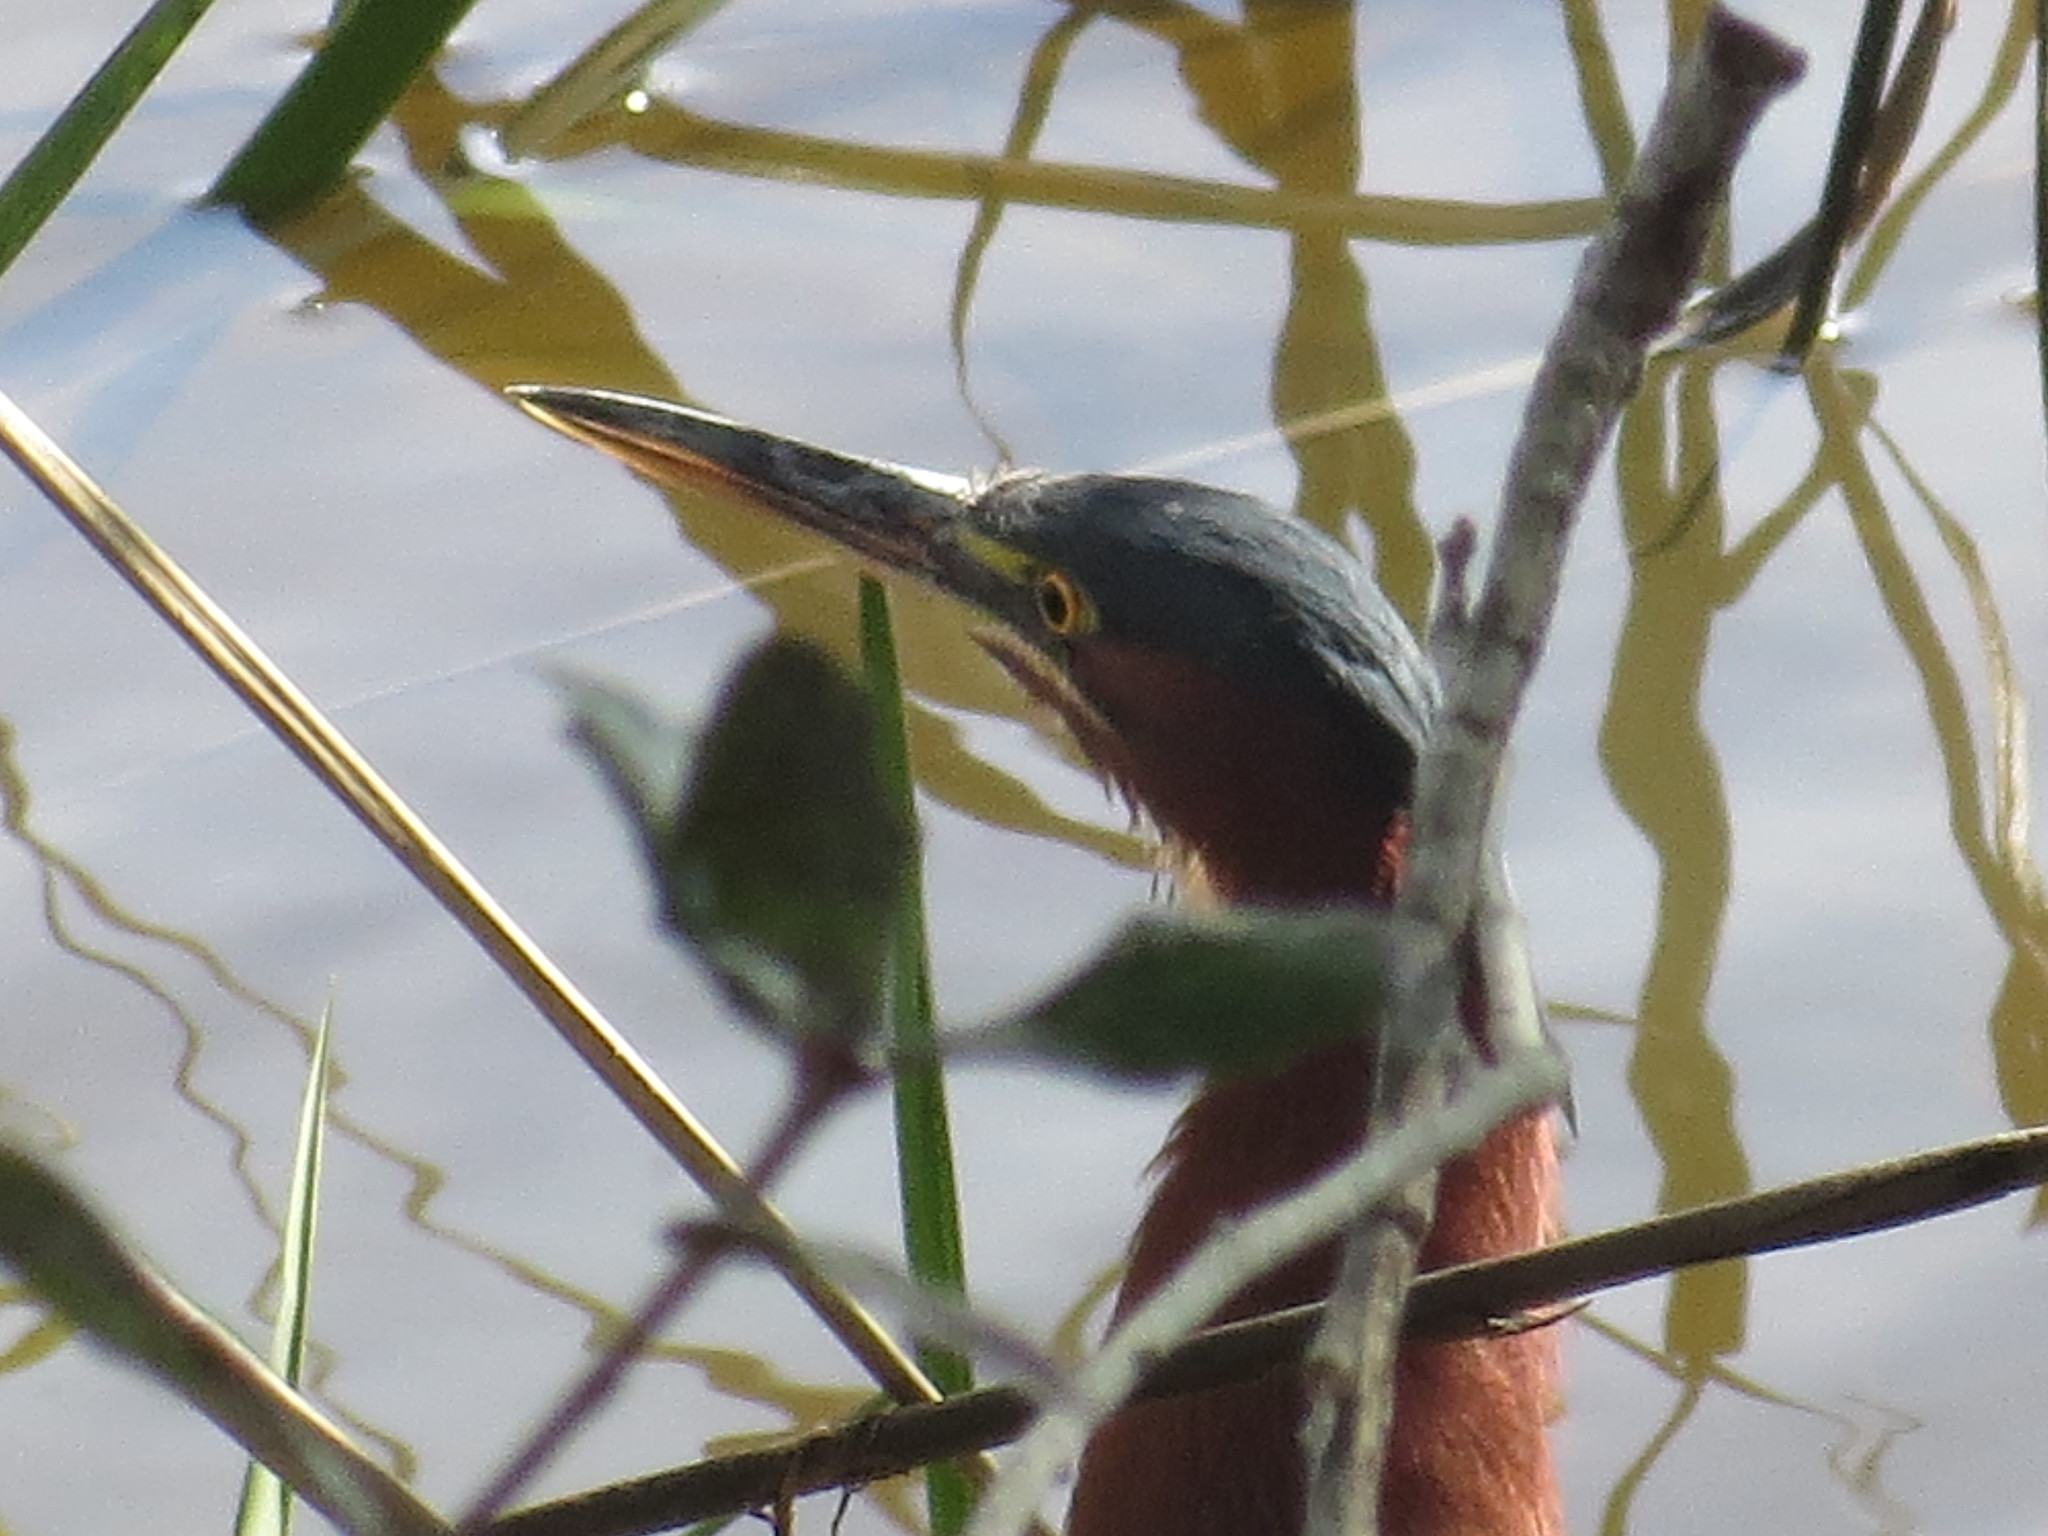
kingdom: Animalia
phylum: Chordata
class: Aves
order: Pelecaniformes
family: Ardeidae
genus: Butorides
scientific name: Butorides virescens
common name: Green heron
